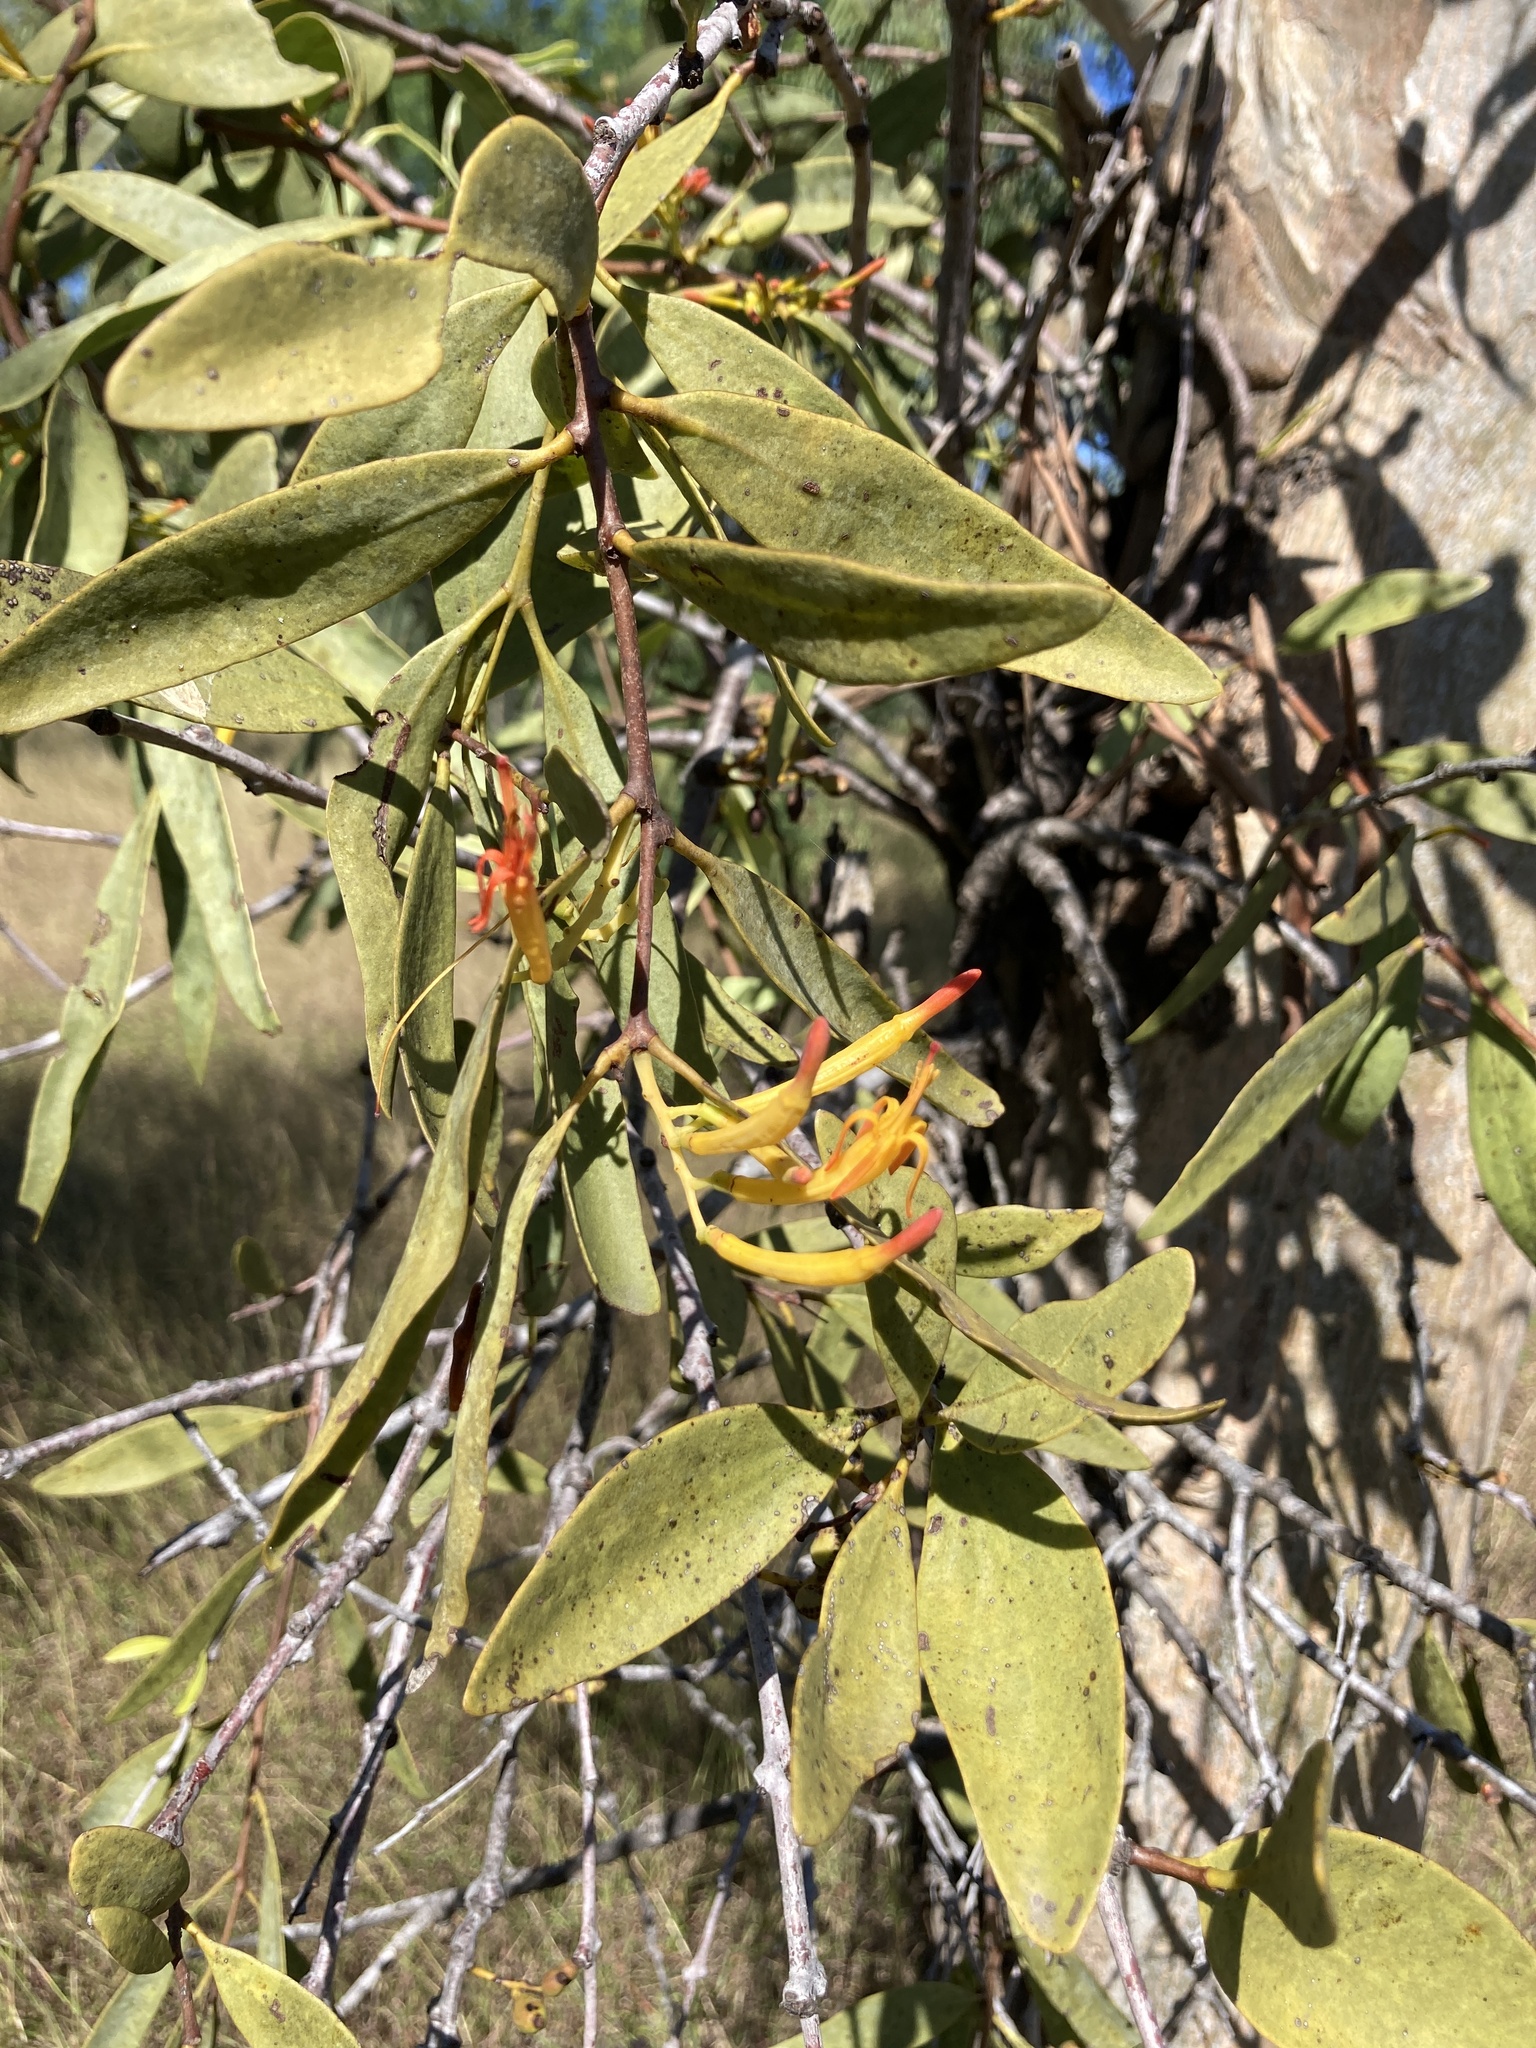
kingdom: Plantae
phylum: Tracheophyta
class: Magnoliopsida
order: Santalales
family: Loranthaceae
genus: Dendrophthoe
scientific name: Dendrophthoe glabrescens
